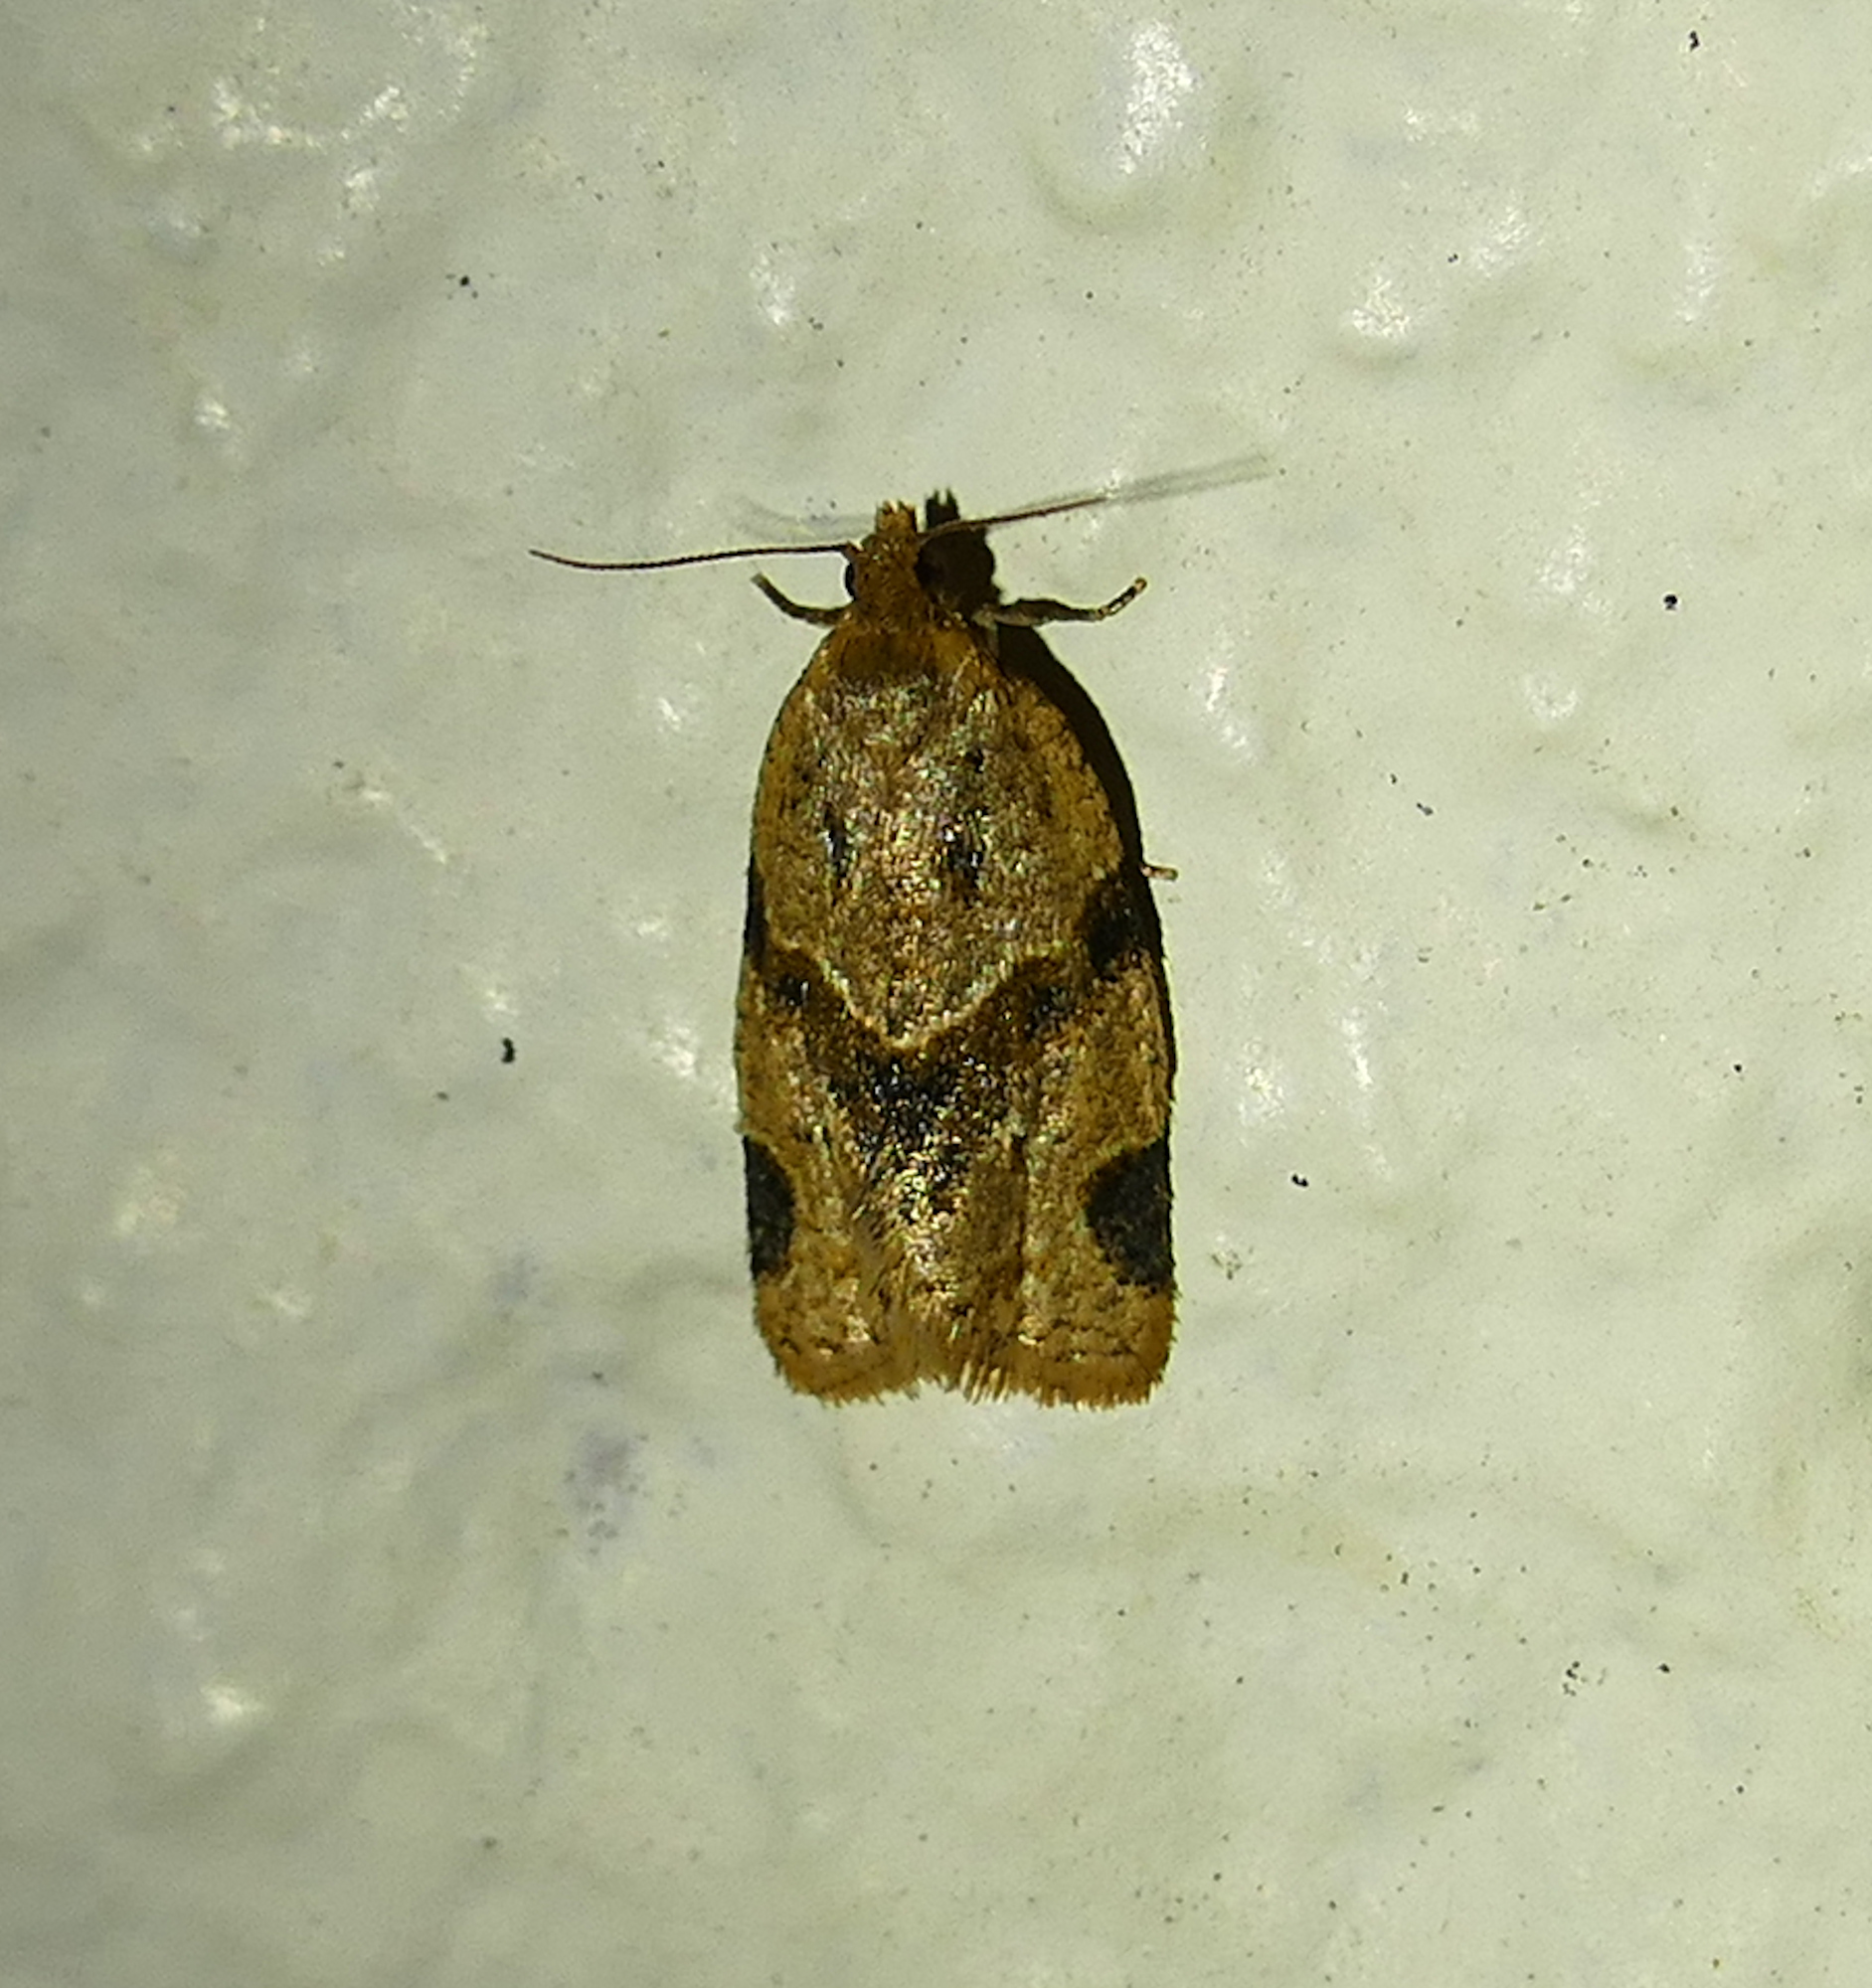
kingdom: Animalia
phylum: Arthropoda
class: Insecta
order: Lepidoptera
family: Tortricidae
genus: Clepsis
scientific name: Clepsis peritana
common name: Garden tortrix
